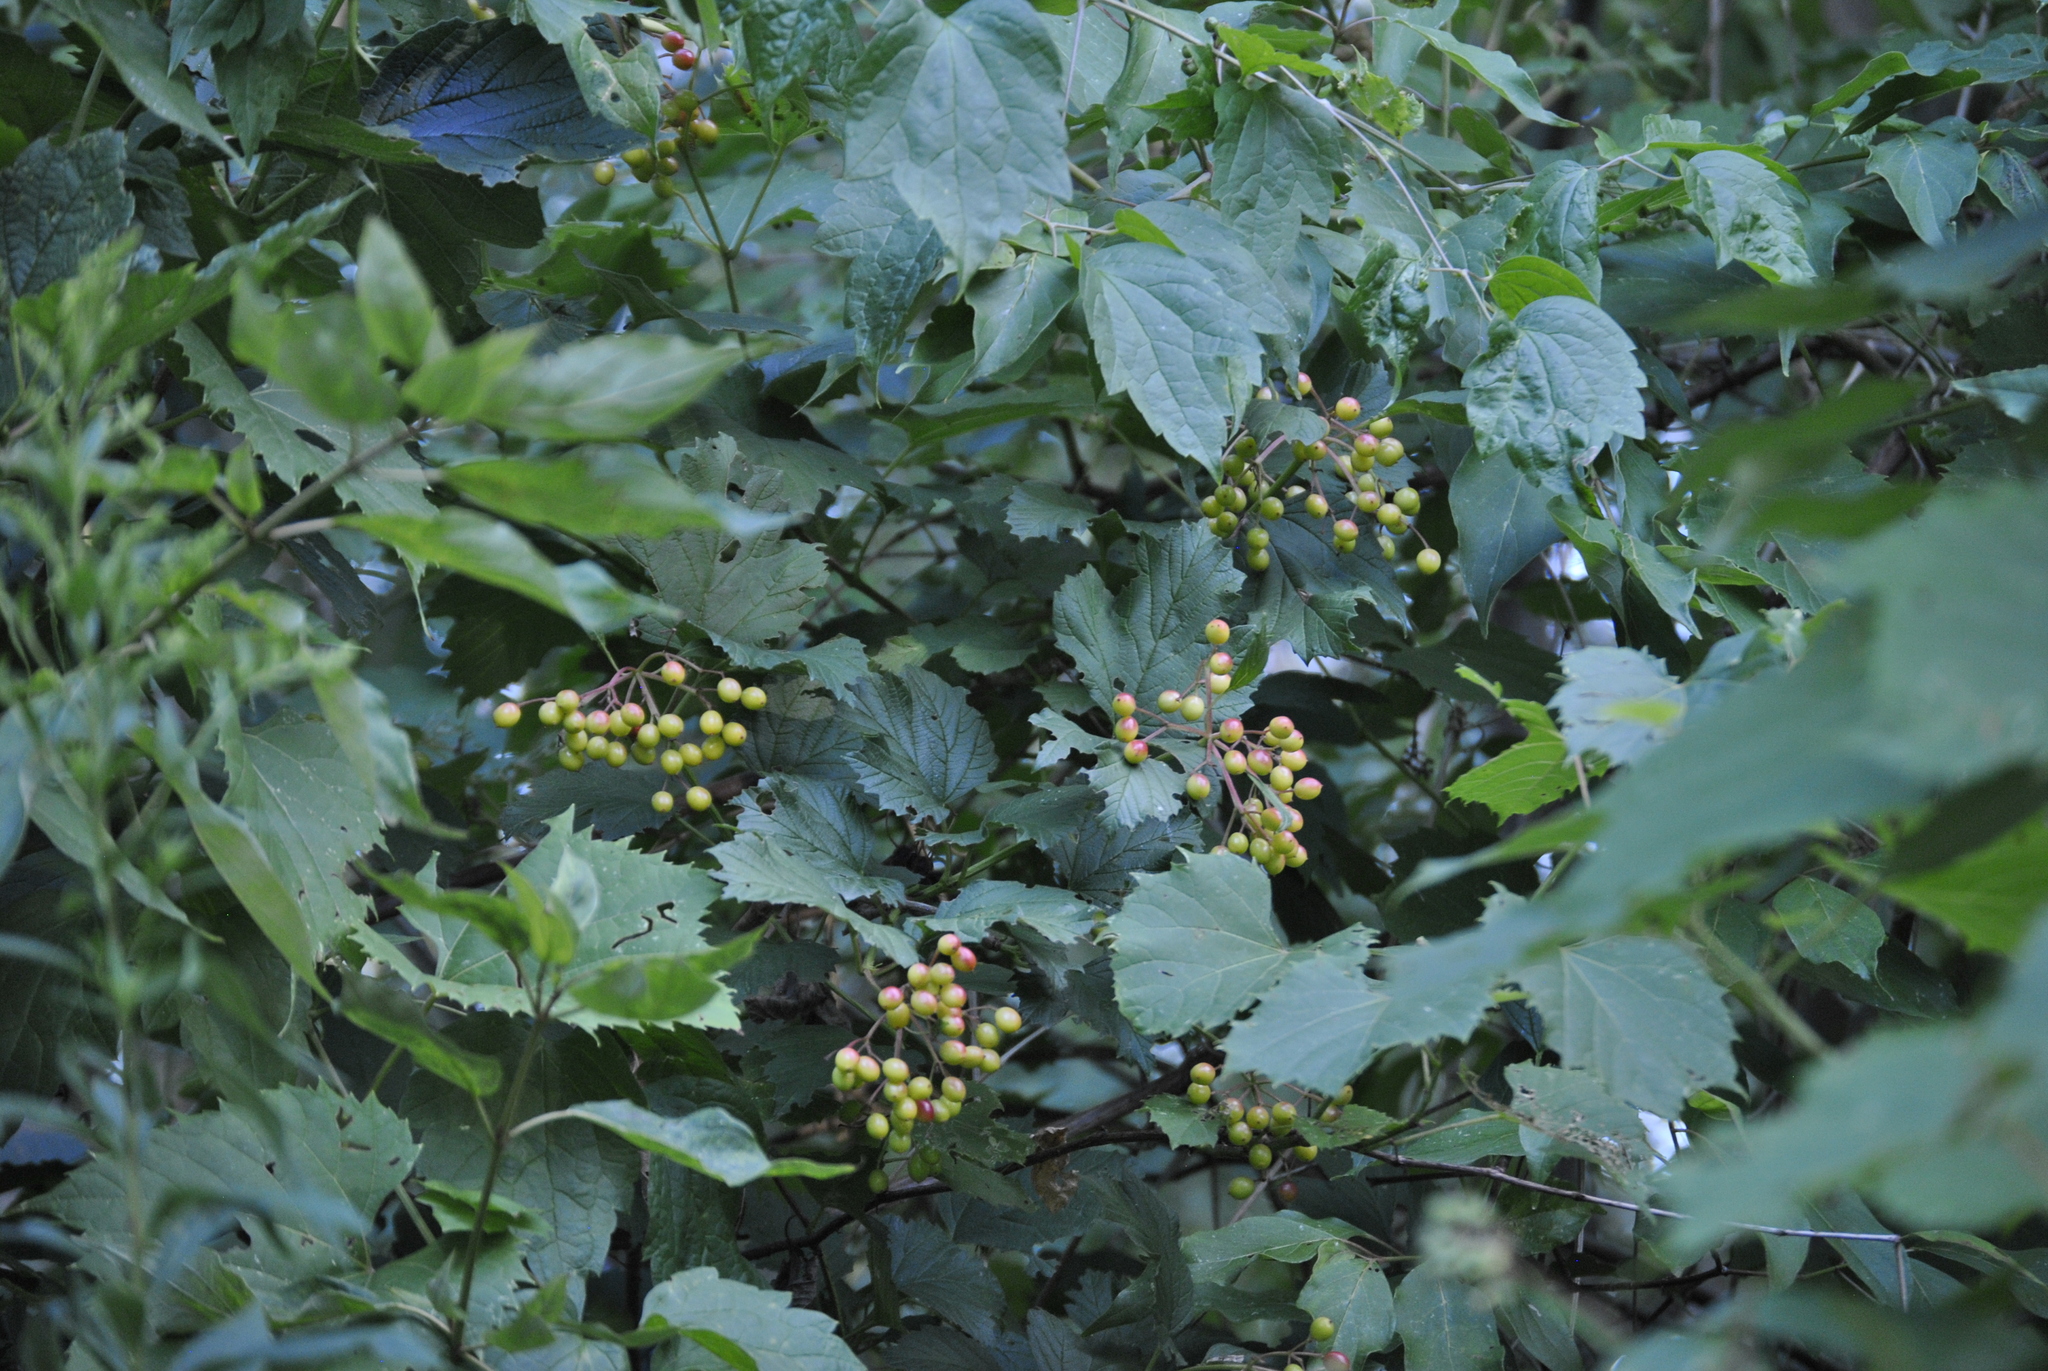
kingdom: Plantae
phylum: Tracheophyta
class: Magnoliopsida
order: Dipsacales
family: Viburnaceae
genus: Viburnum
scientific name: Viburnum opulus
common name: Guelder-rose
